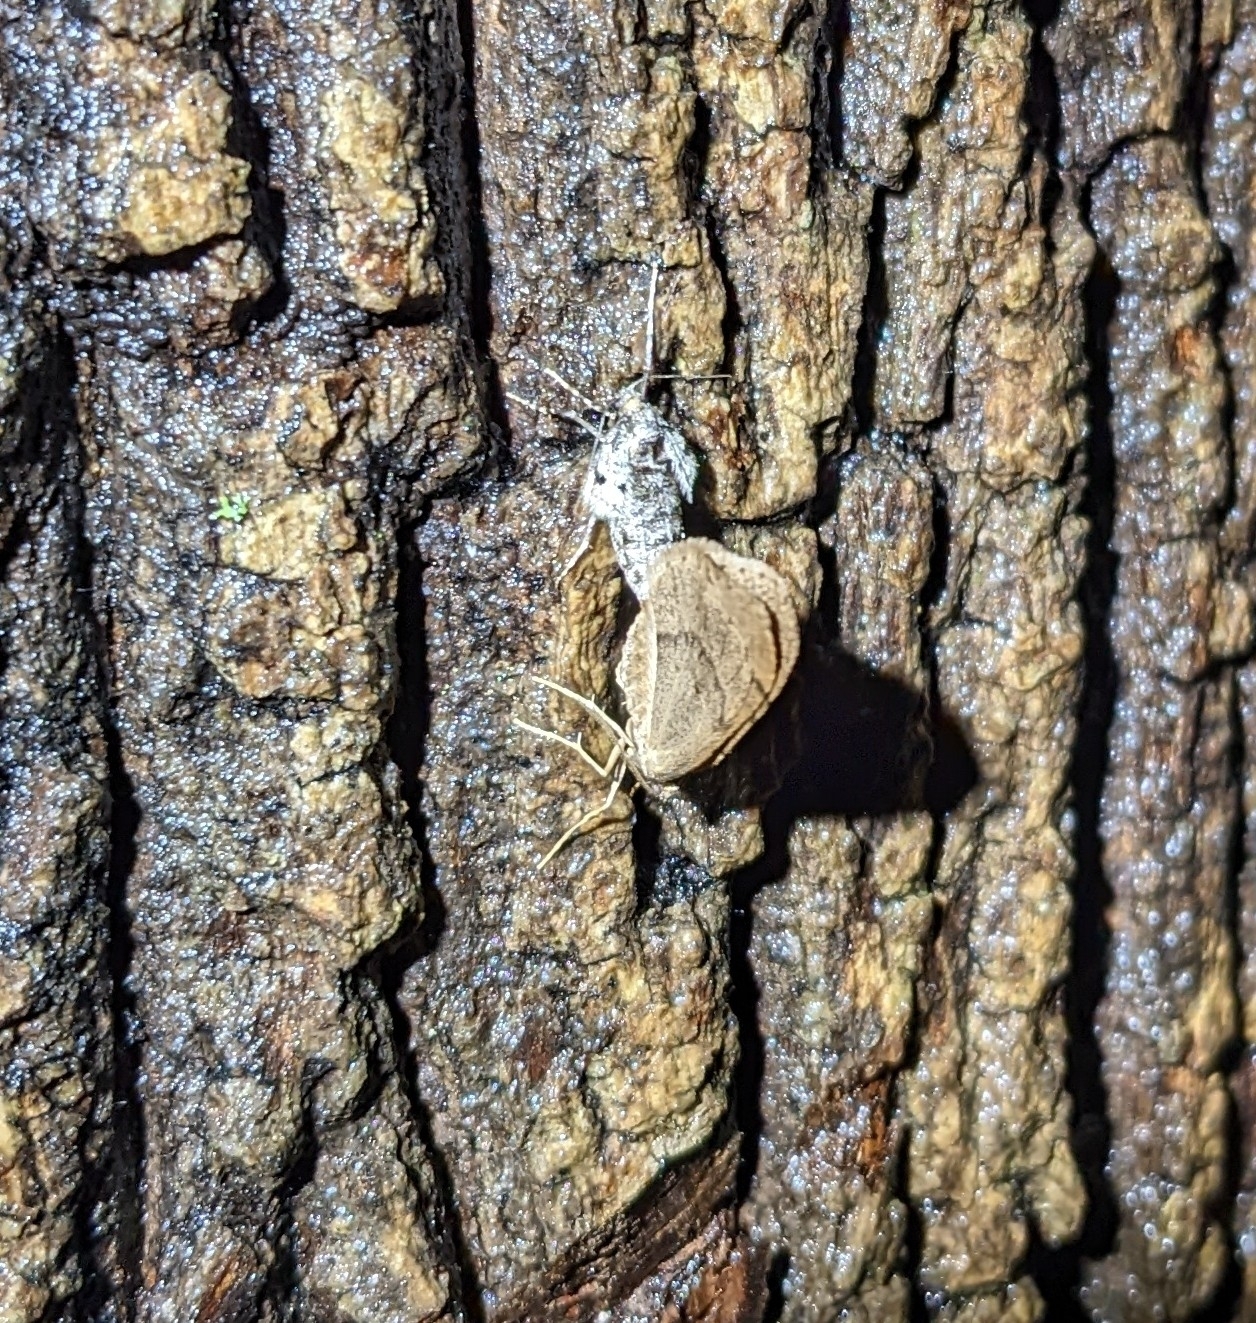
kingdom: Animalia
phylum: Arthropoda
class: Insecta
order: Lepidoptera
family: Geometridae
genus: Operophtera
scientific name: Operophtera brumata
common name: Winter moth
